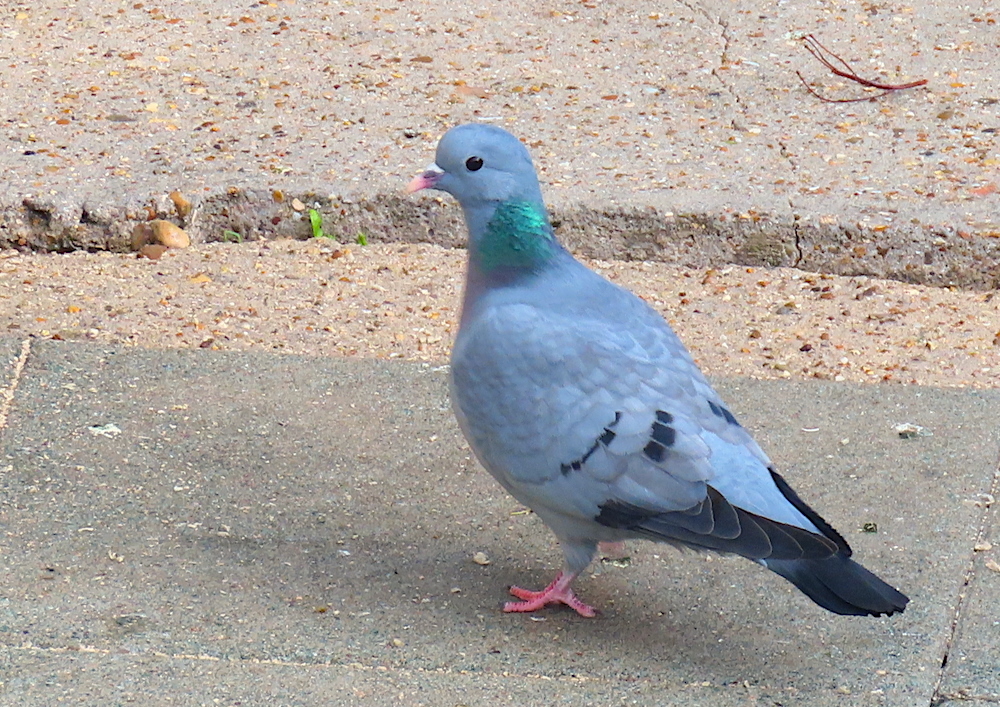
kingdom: Animalia
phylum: Chordata
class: Aves
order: Columbiformes
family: Columbidae
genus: Columba
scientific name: Columba oenas
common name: Stock dove
